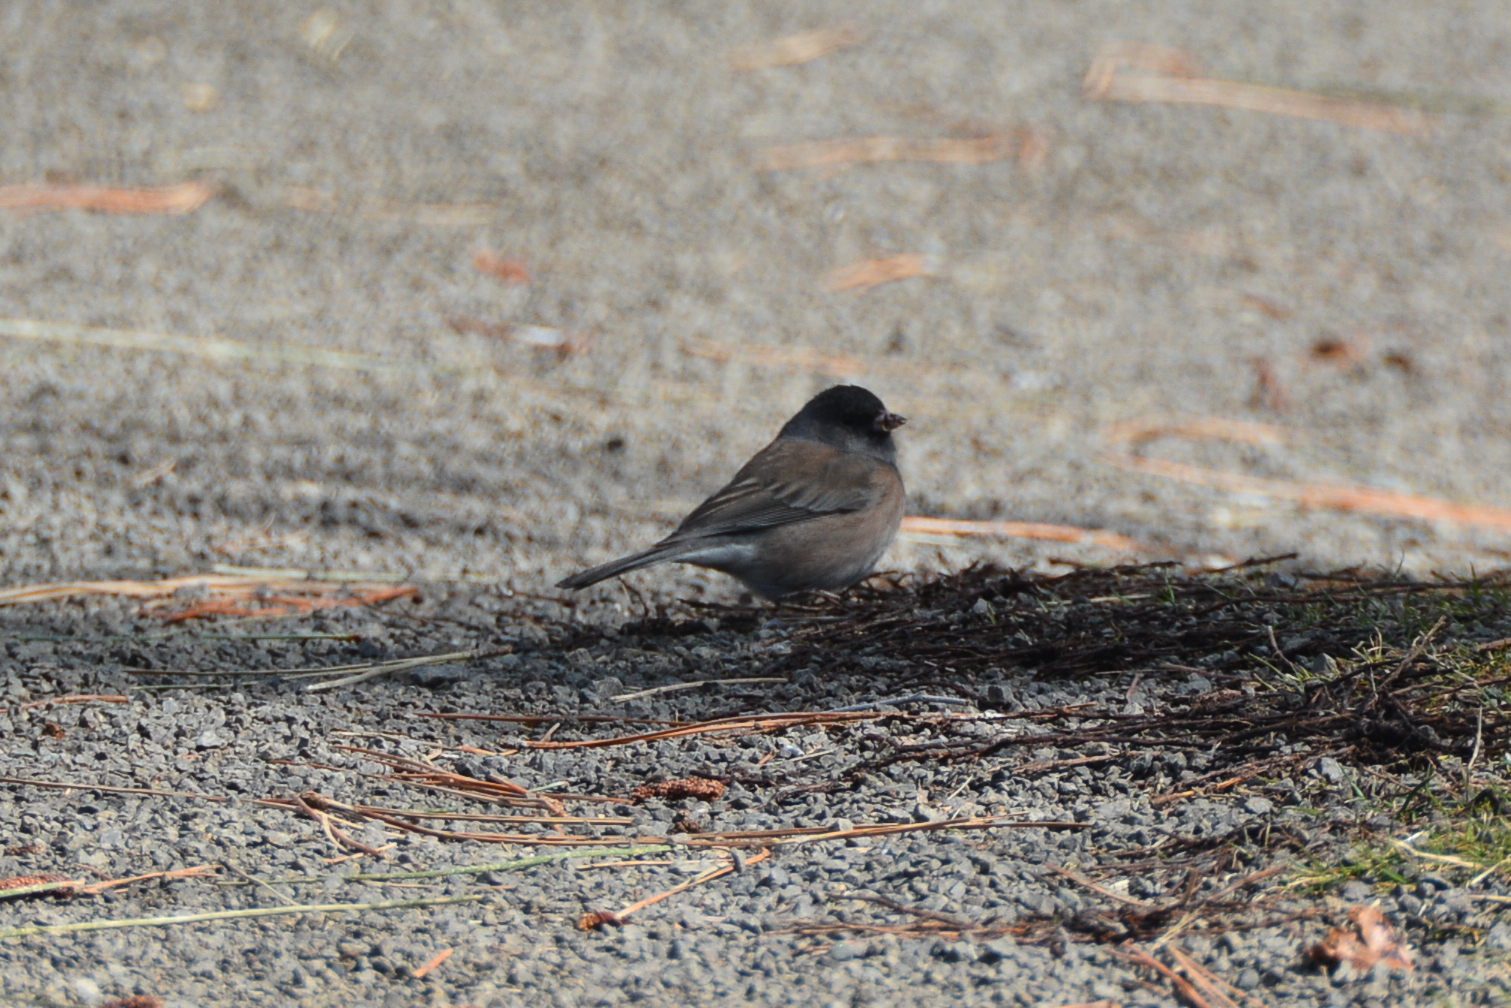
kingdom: Animalia
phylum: Chordata
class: Aves
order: Passeriformes
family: Passerellidae
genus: Junco
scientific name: Junco hyemalis
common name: Dark-eyed junco
